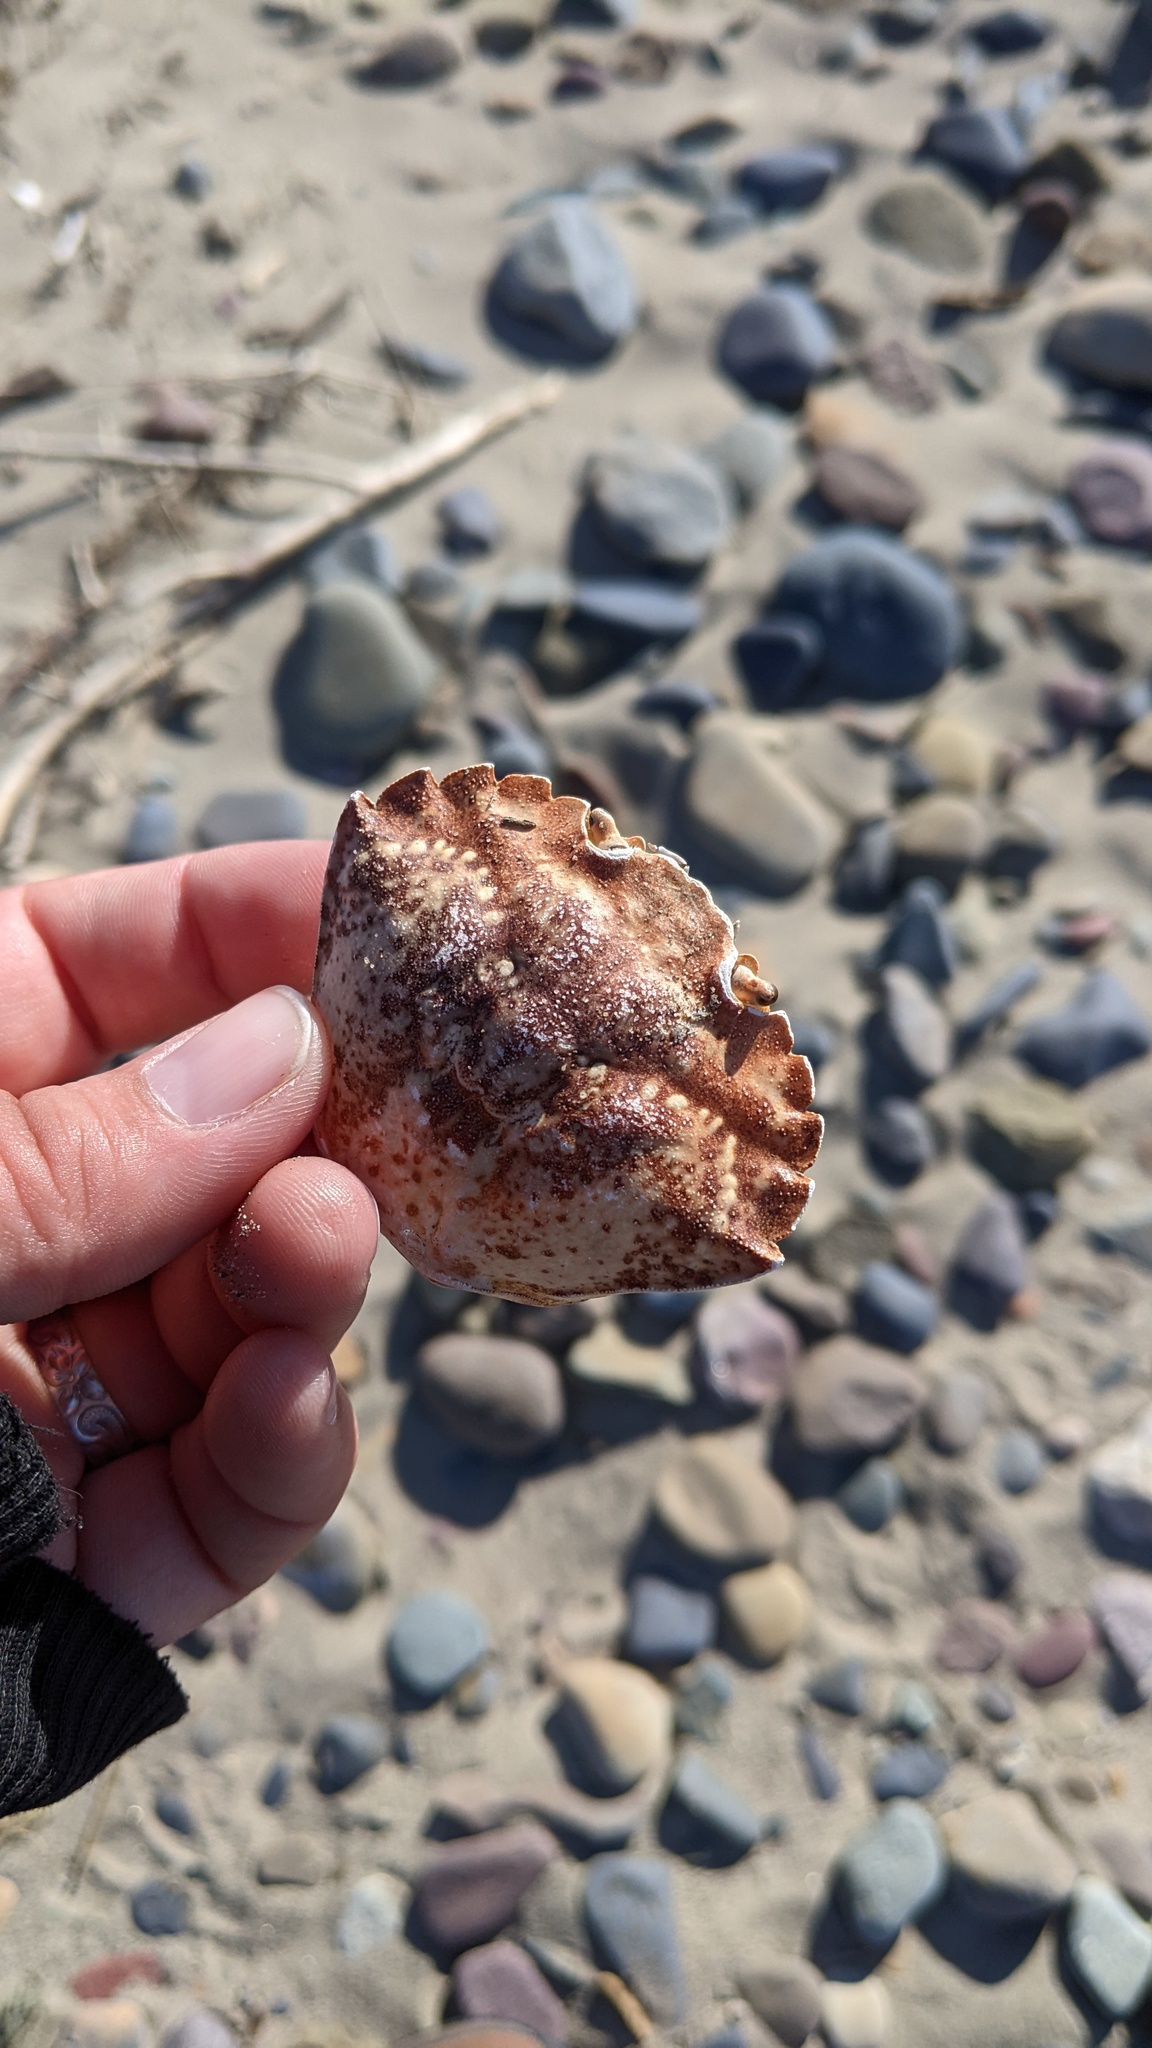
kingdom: Animalia
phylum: Arthropoda
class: Malacostraca
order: Decapoda
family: Carcinidae
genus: Carcinus
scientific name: Carcinus maenas
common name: European green crab
